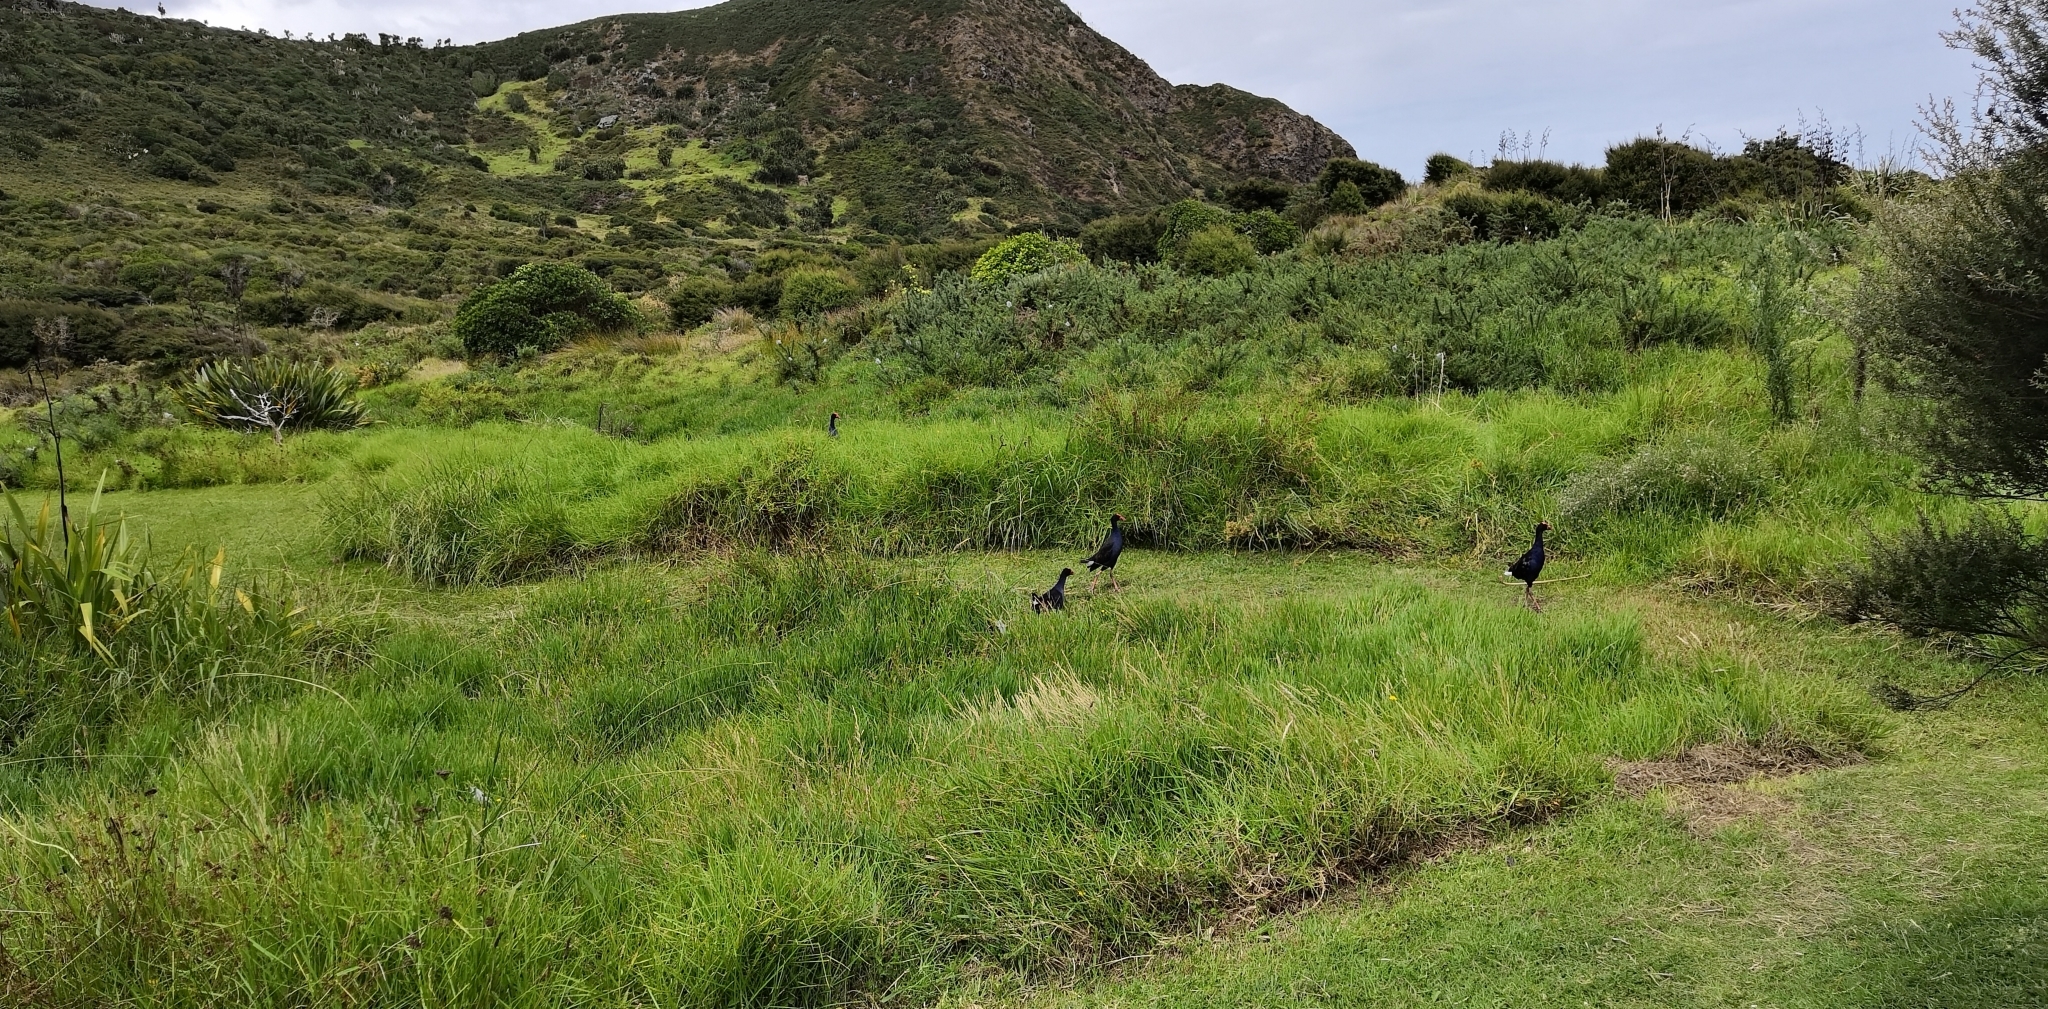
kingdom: Animalia
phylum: Chordata
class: Aves
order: Gruiformes
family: Rallidae
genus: Porphyrio
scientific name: Porphyrio melanotus
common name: Australasian swamphen
